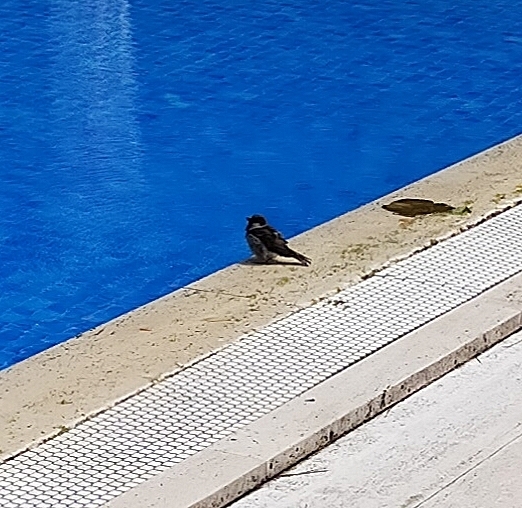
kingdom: Animalia
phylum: Chordata
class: Aves
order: Passeriformes
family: Passeridae
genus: Passer
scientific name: Passer hispaniolensis
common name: Spanish sparrow
